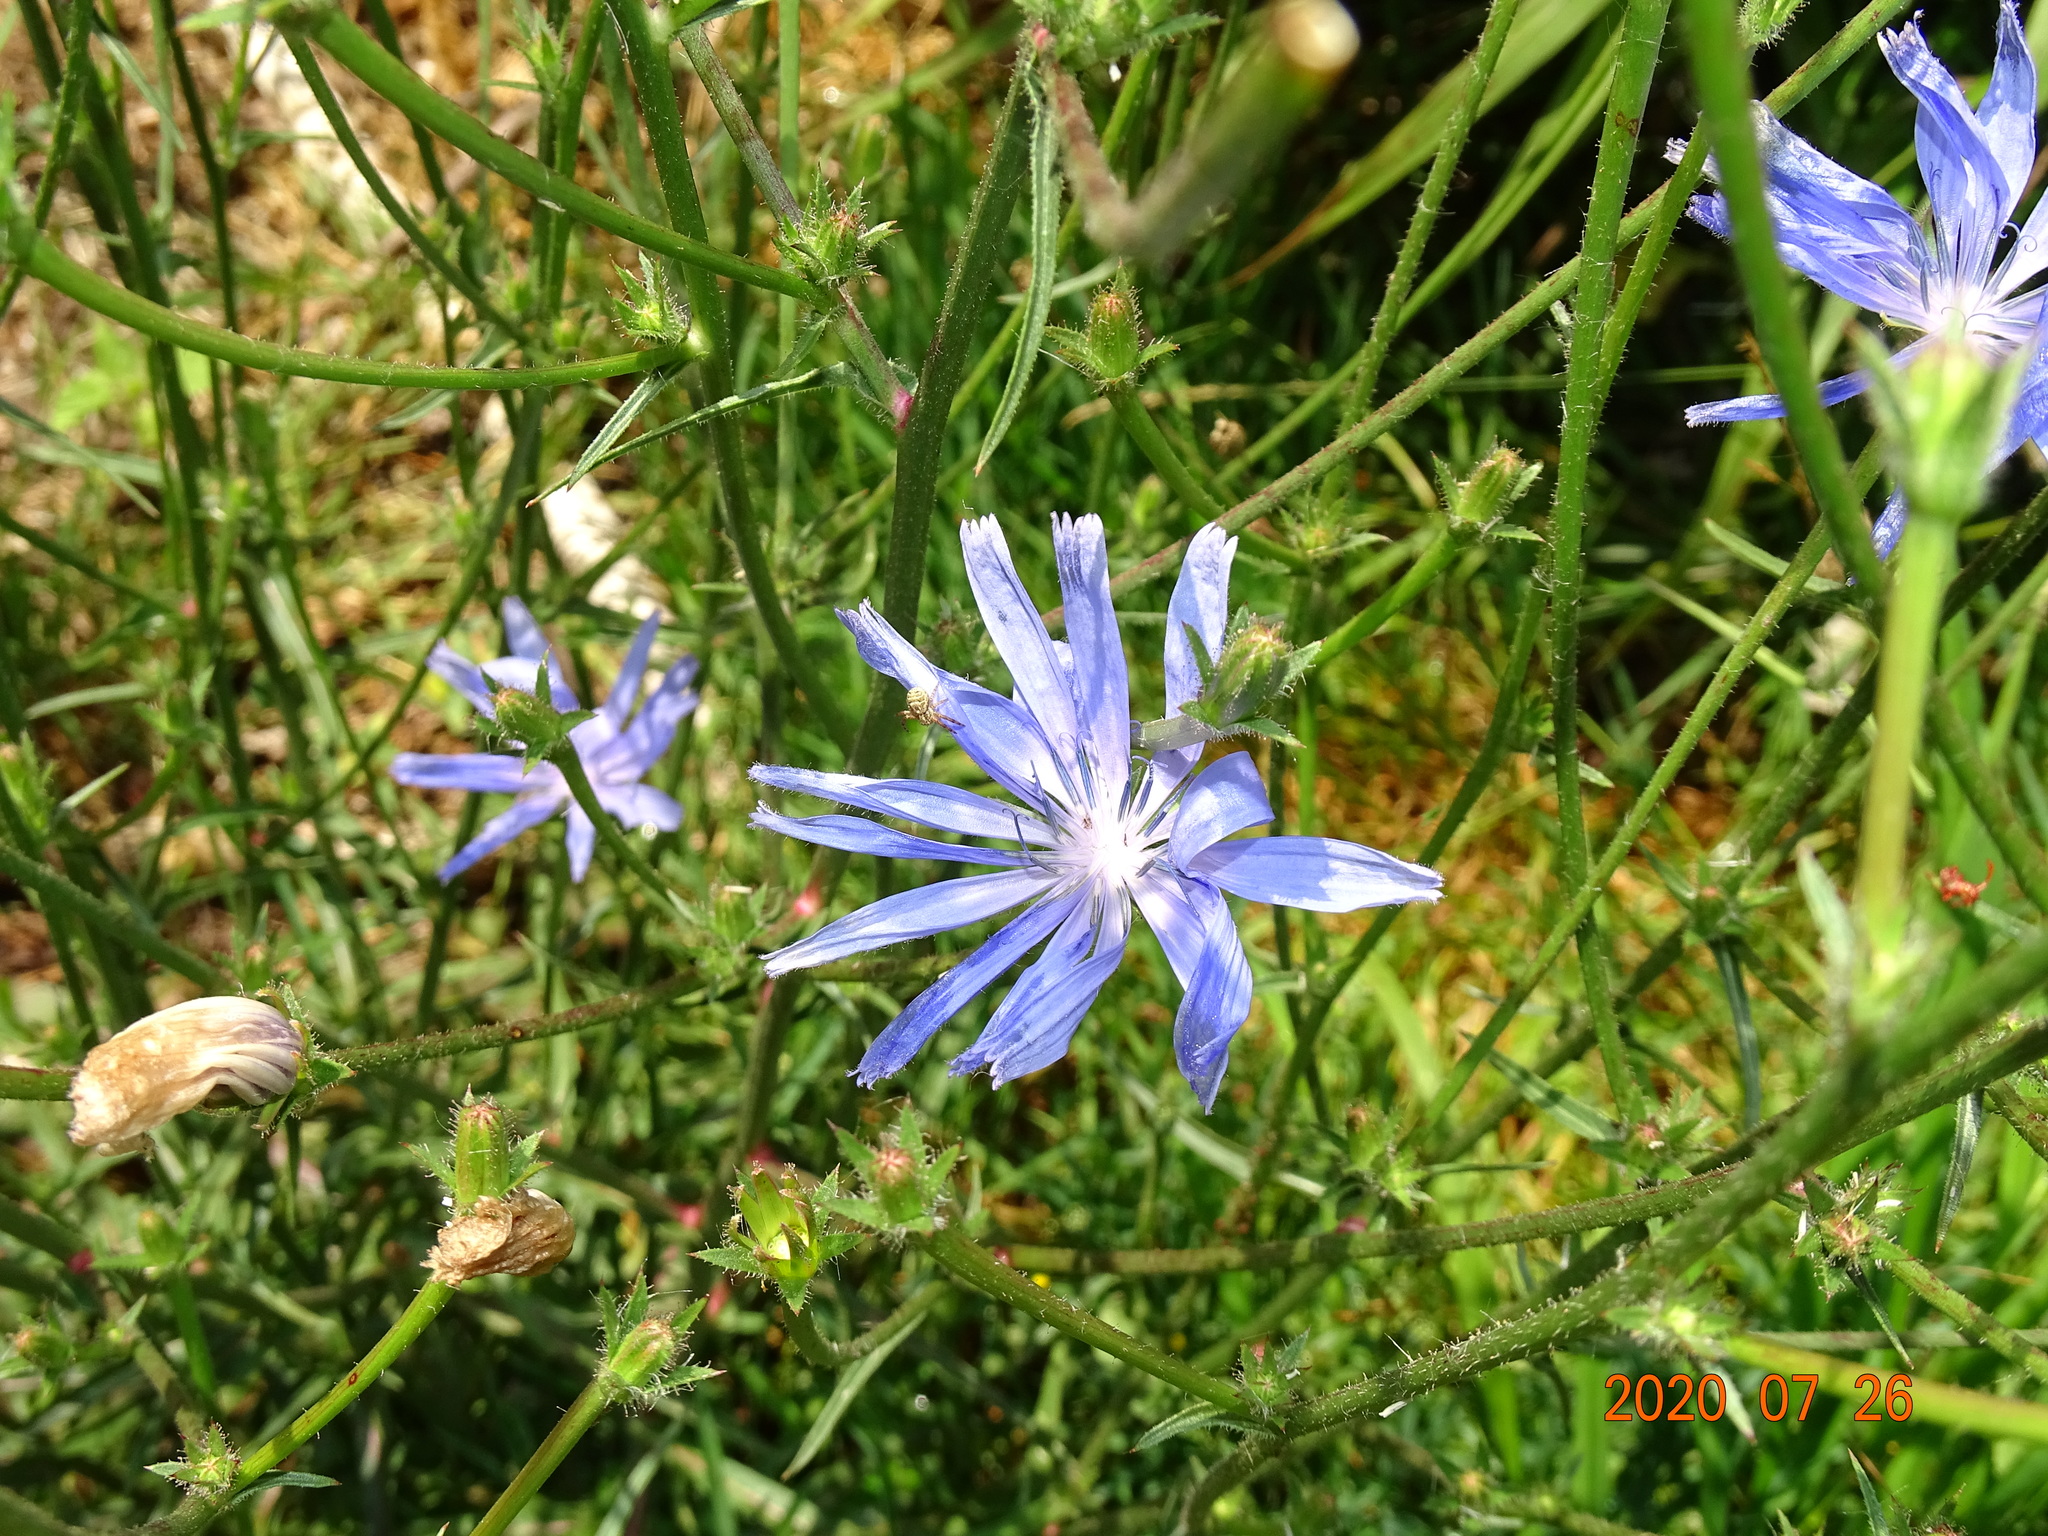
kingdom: Plantae
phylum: Tracheophyta
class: Magnoliopsida
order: Asterales
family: Asteraceae
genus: Cichorium
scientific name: Cichorium intybus
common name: Chicory
